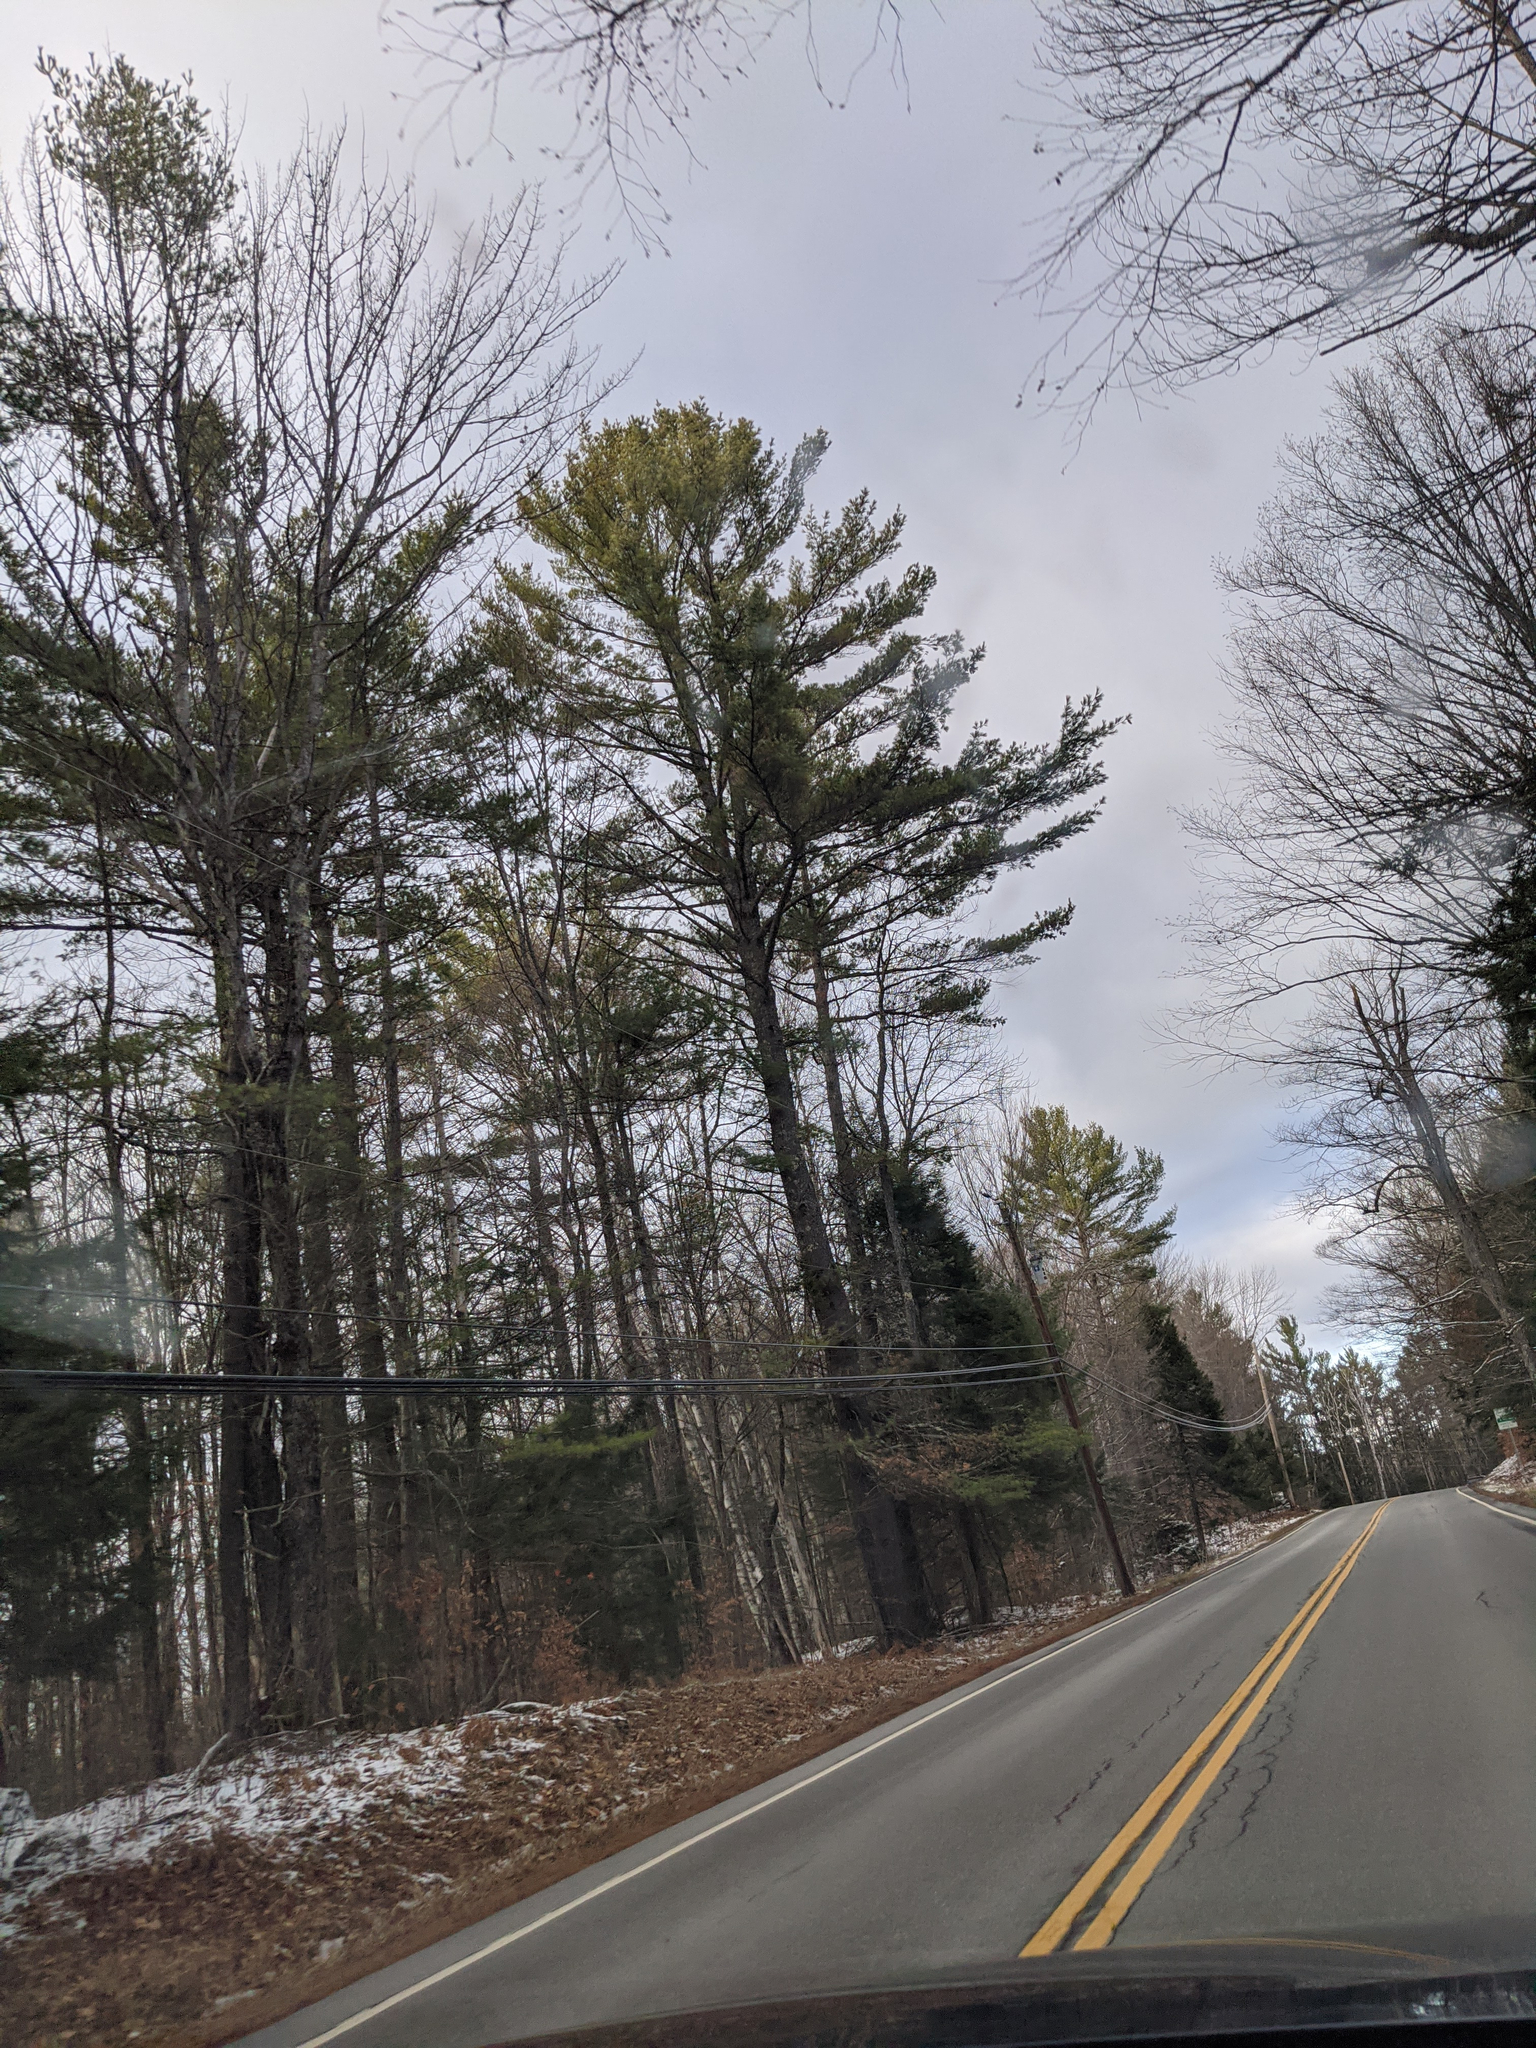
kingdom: Plantae
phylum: Tracheophyta
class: Pinopsida
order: Pinales
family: Pinaceae
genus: Pinus
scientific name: Pinus strobus
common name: Weymouth pine
